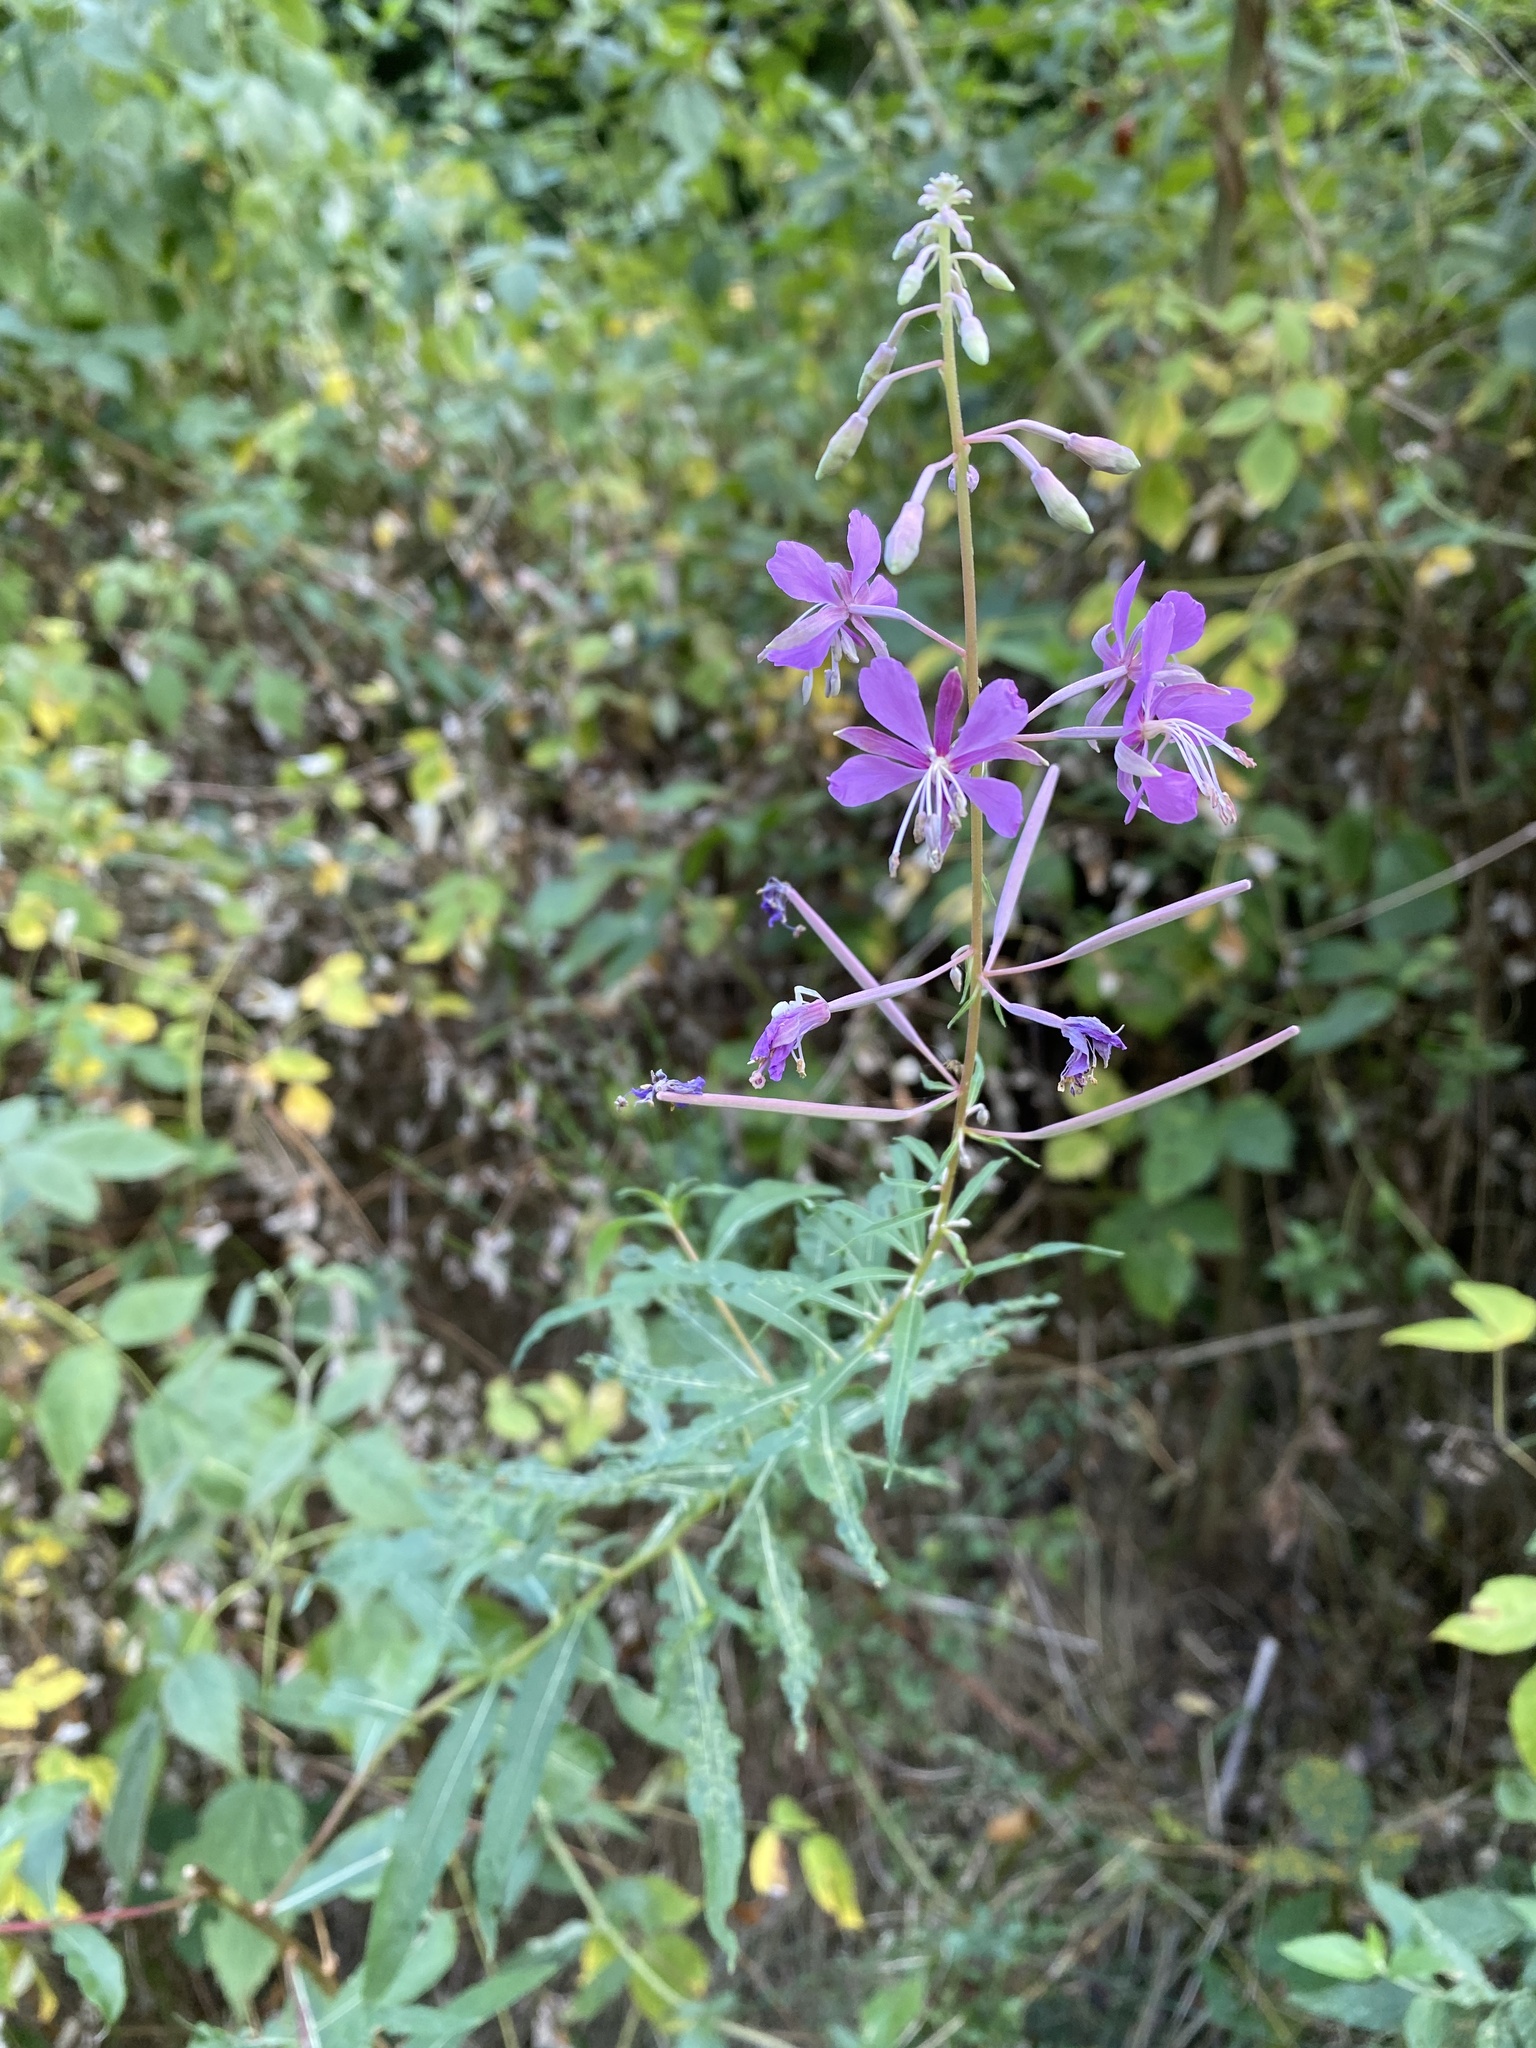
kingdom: Plantae
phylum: Tracheophyta
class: Magnoliopsida
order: Myrtales
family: Onagraceae
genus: Chamaenerion
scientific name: Chamaenerion angustifolium
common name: Fireweed
